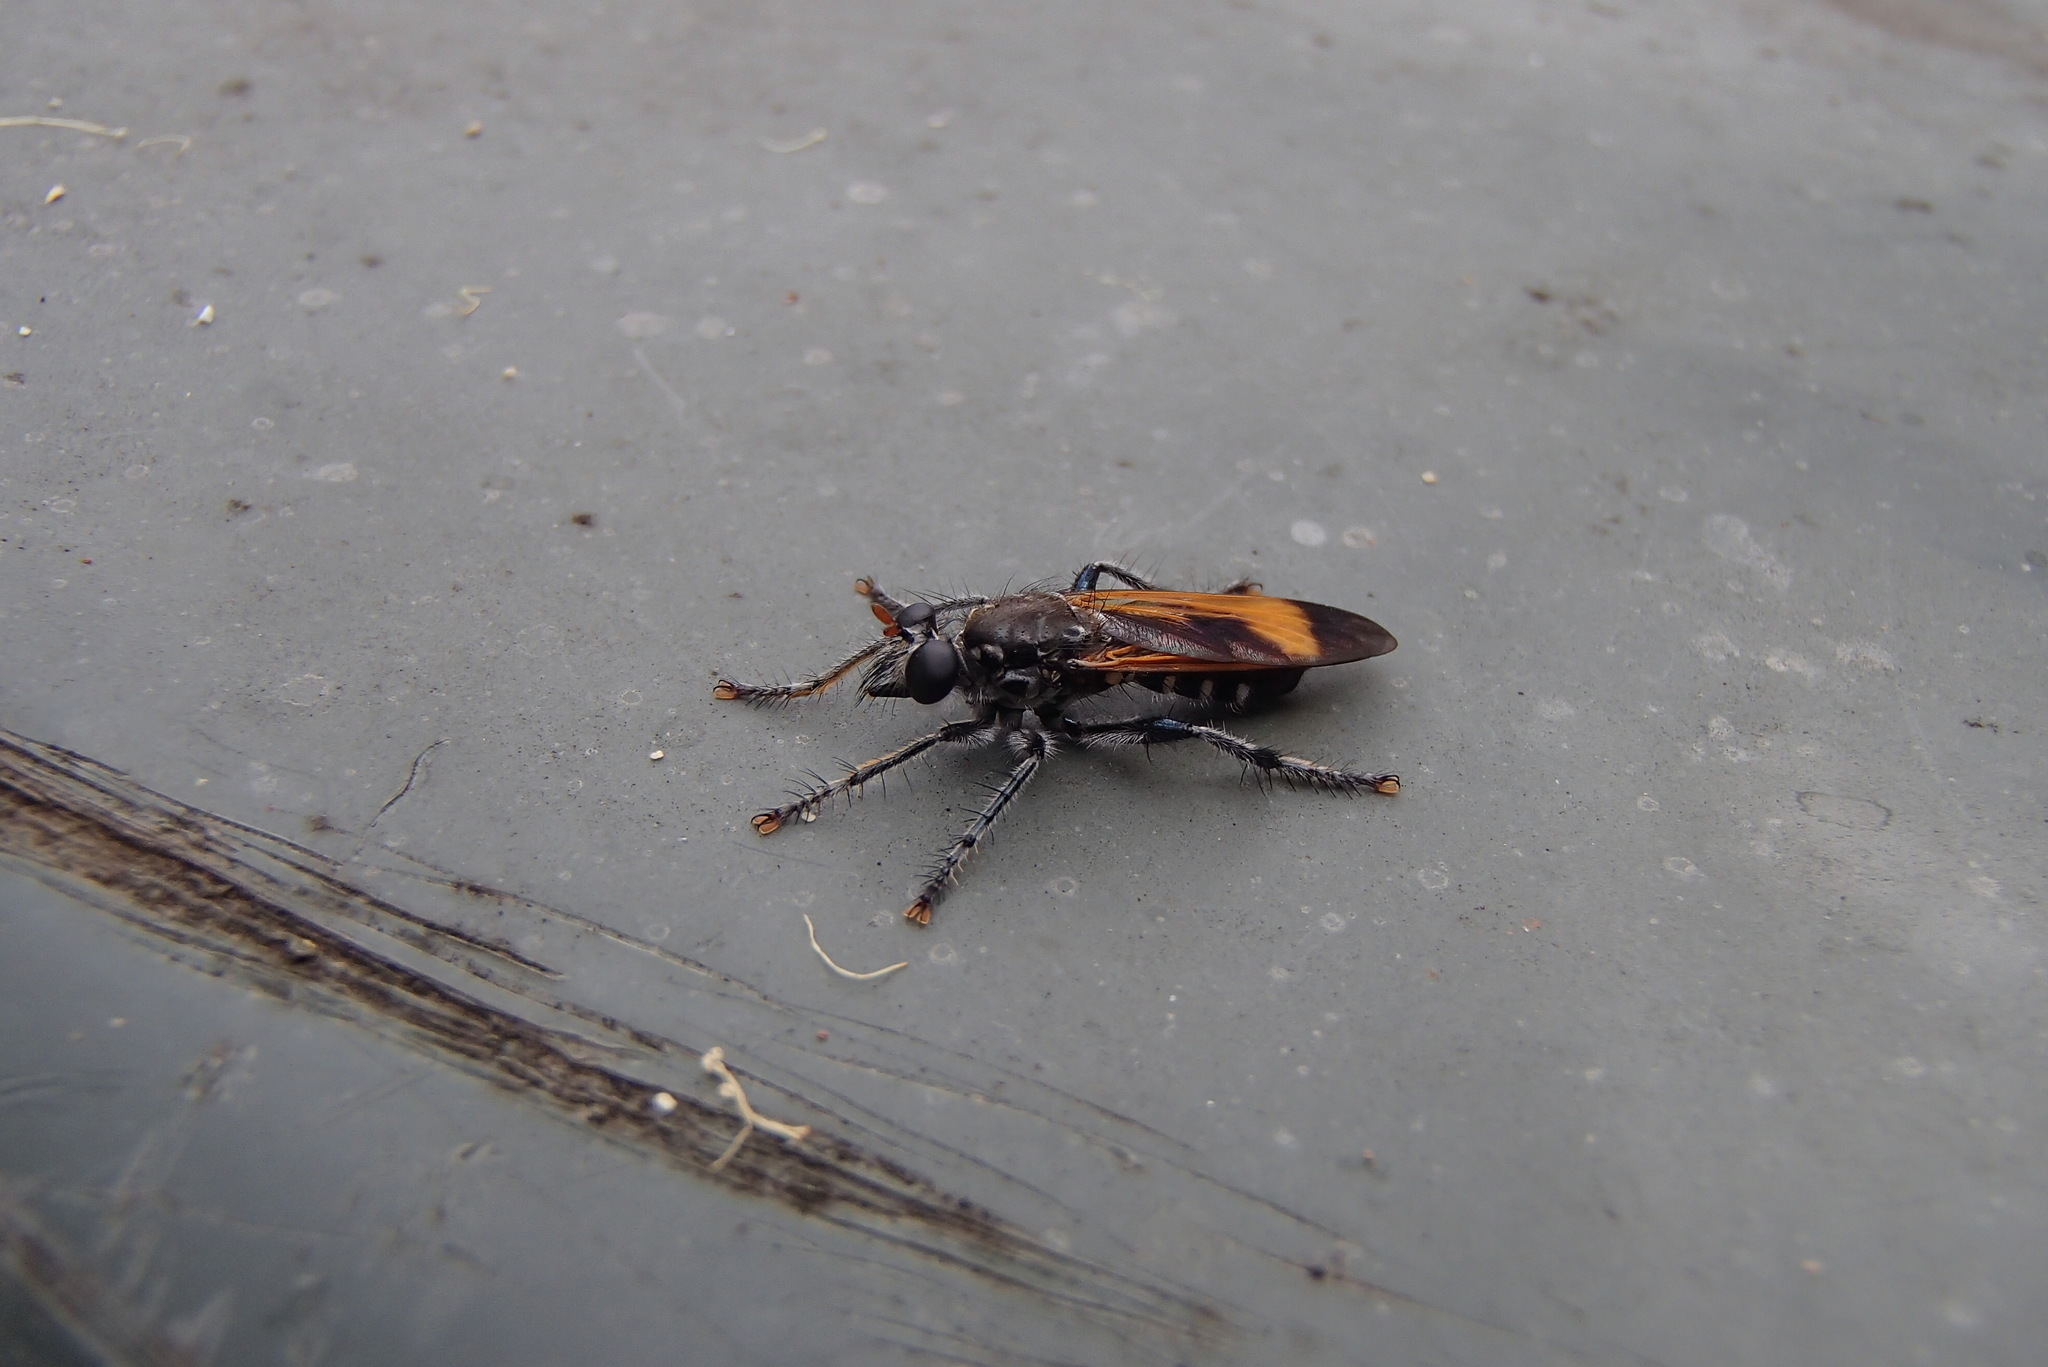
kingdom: Animalia
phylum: Arthropoda
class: Insecta
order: Diptera
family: Asilidae
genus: Orthogonis
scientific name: Orthogonis ornatipennis
